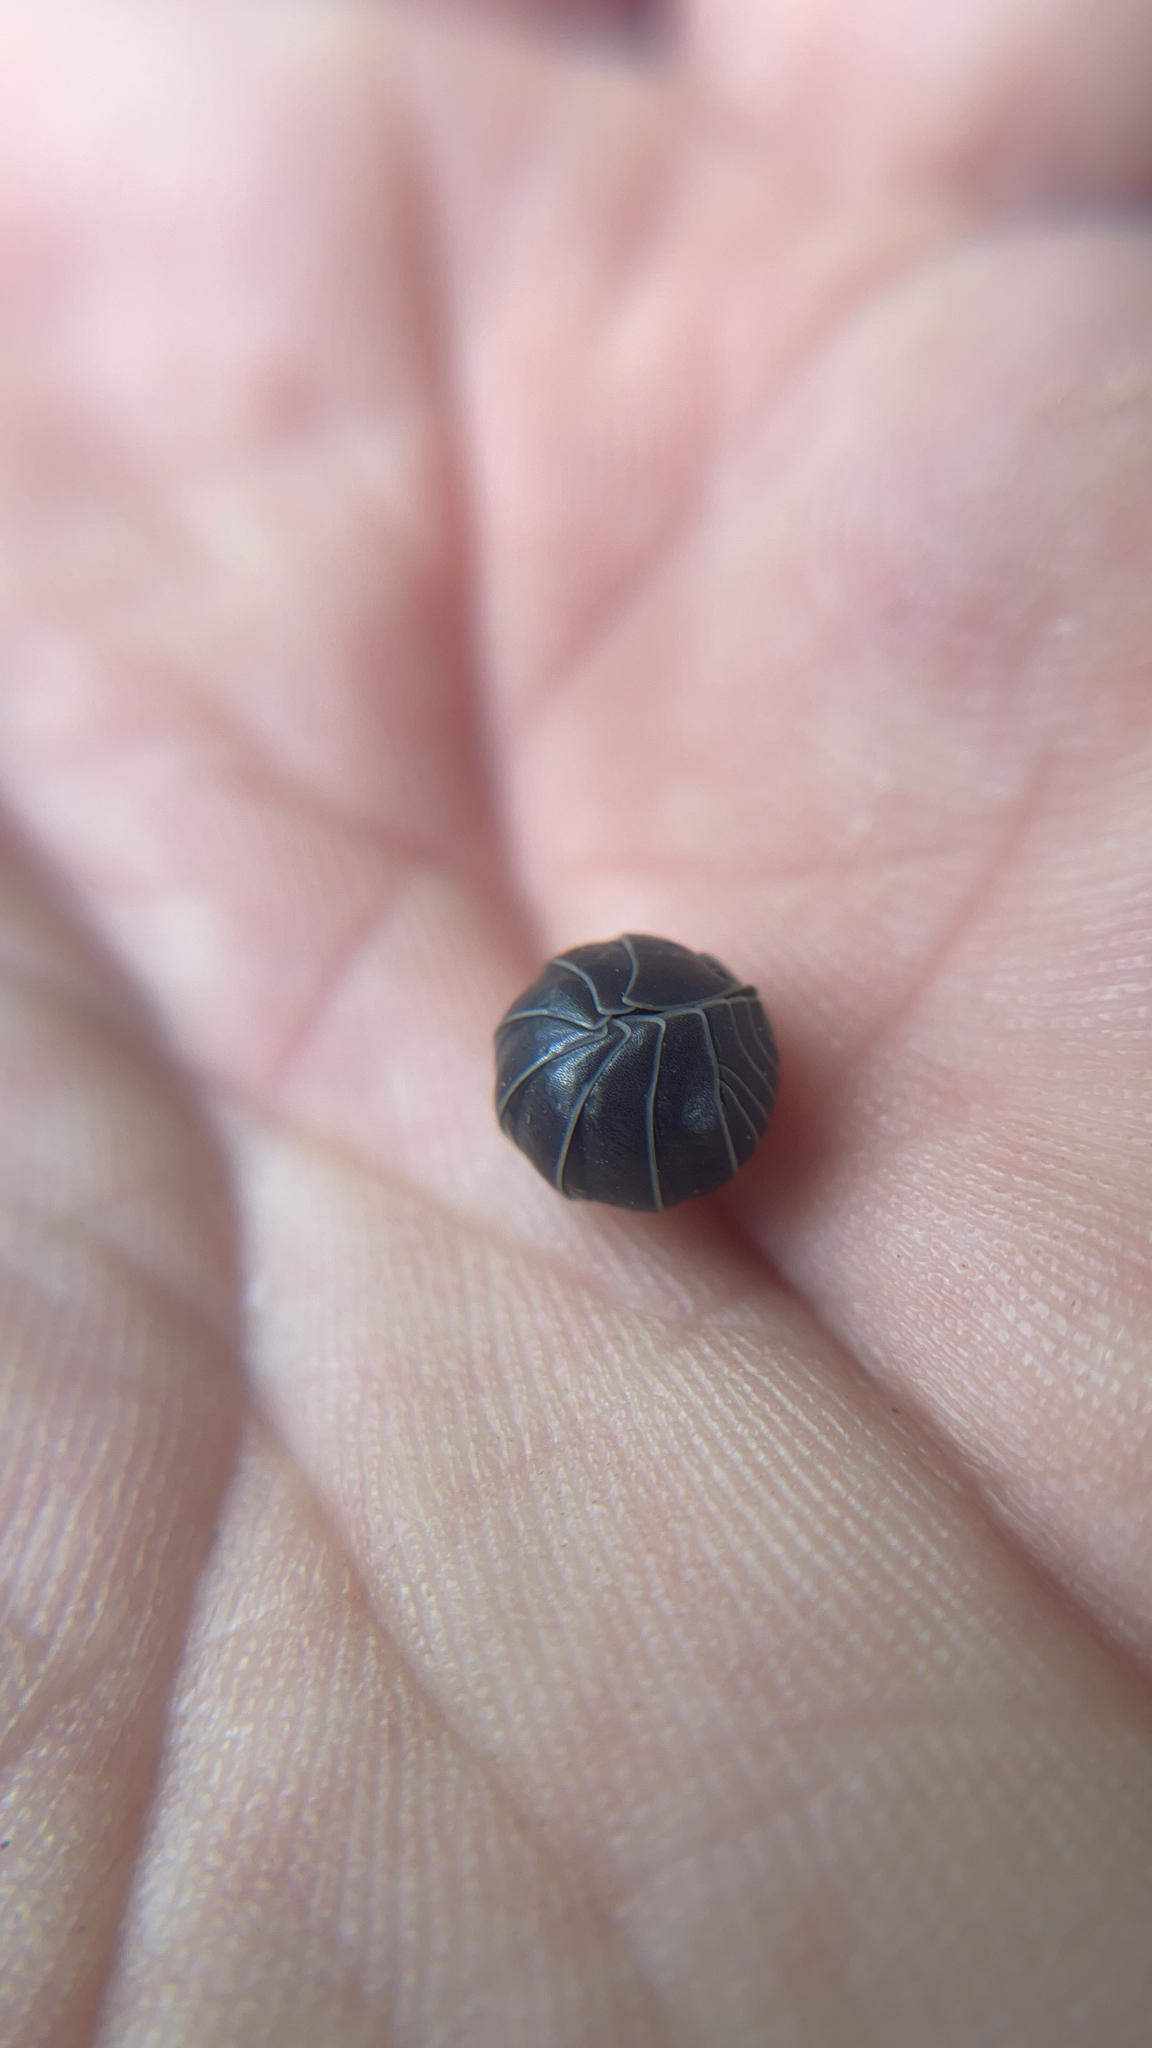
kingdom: Animalia
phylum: Arthropoda
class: Malacostraca
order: Isopoda
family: Armadillidiidae
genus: Armadillidium
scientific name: Armadillidium vulgare
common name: Common pill woodlouse
